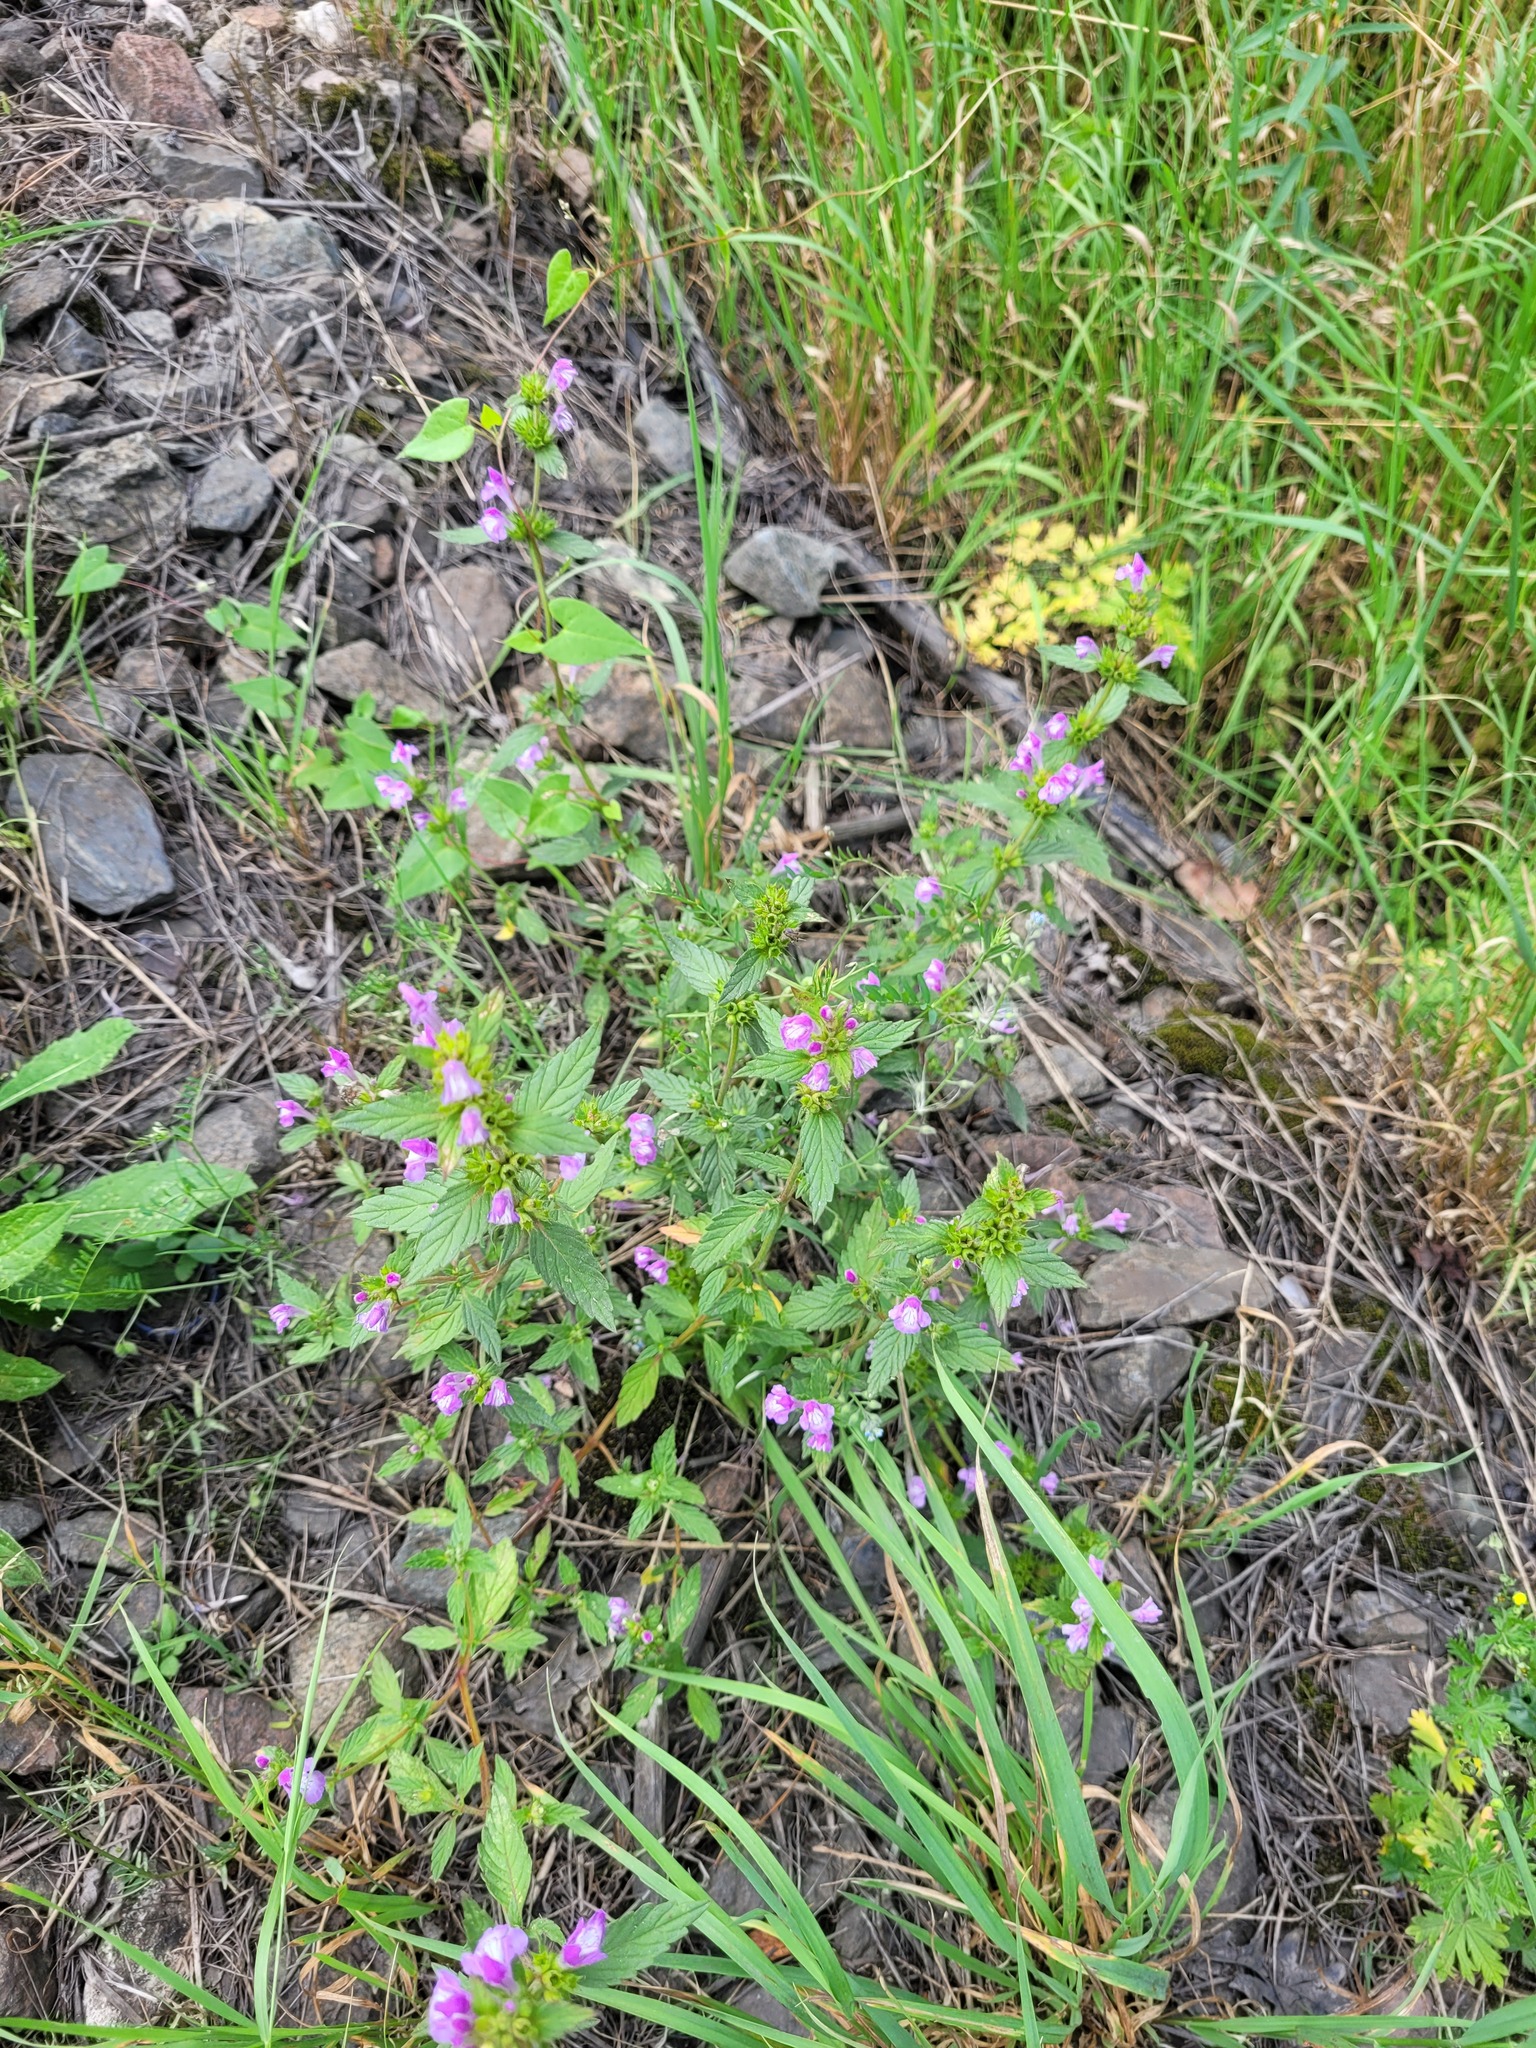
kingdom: Plantae
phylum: Tracheophyta
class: Magnoliopsida
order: Lamiales
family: Lamiaceae
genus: Galeopsis
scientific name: Galeopsis ladanum
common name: Broad-leaved hemp-nettle
